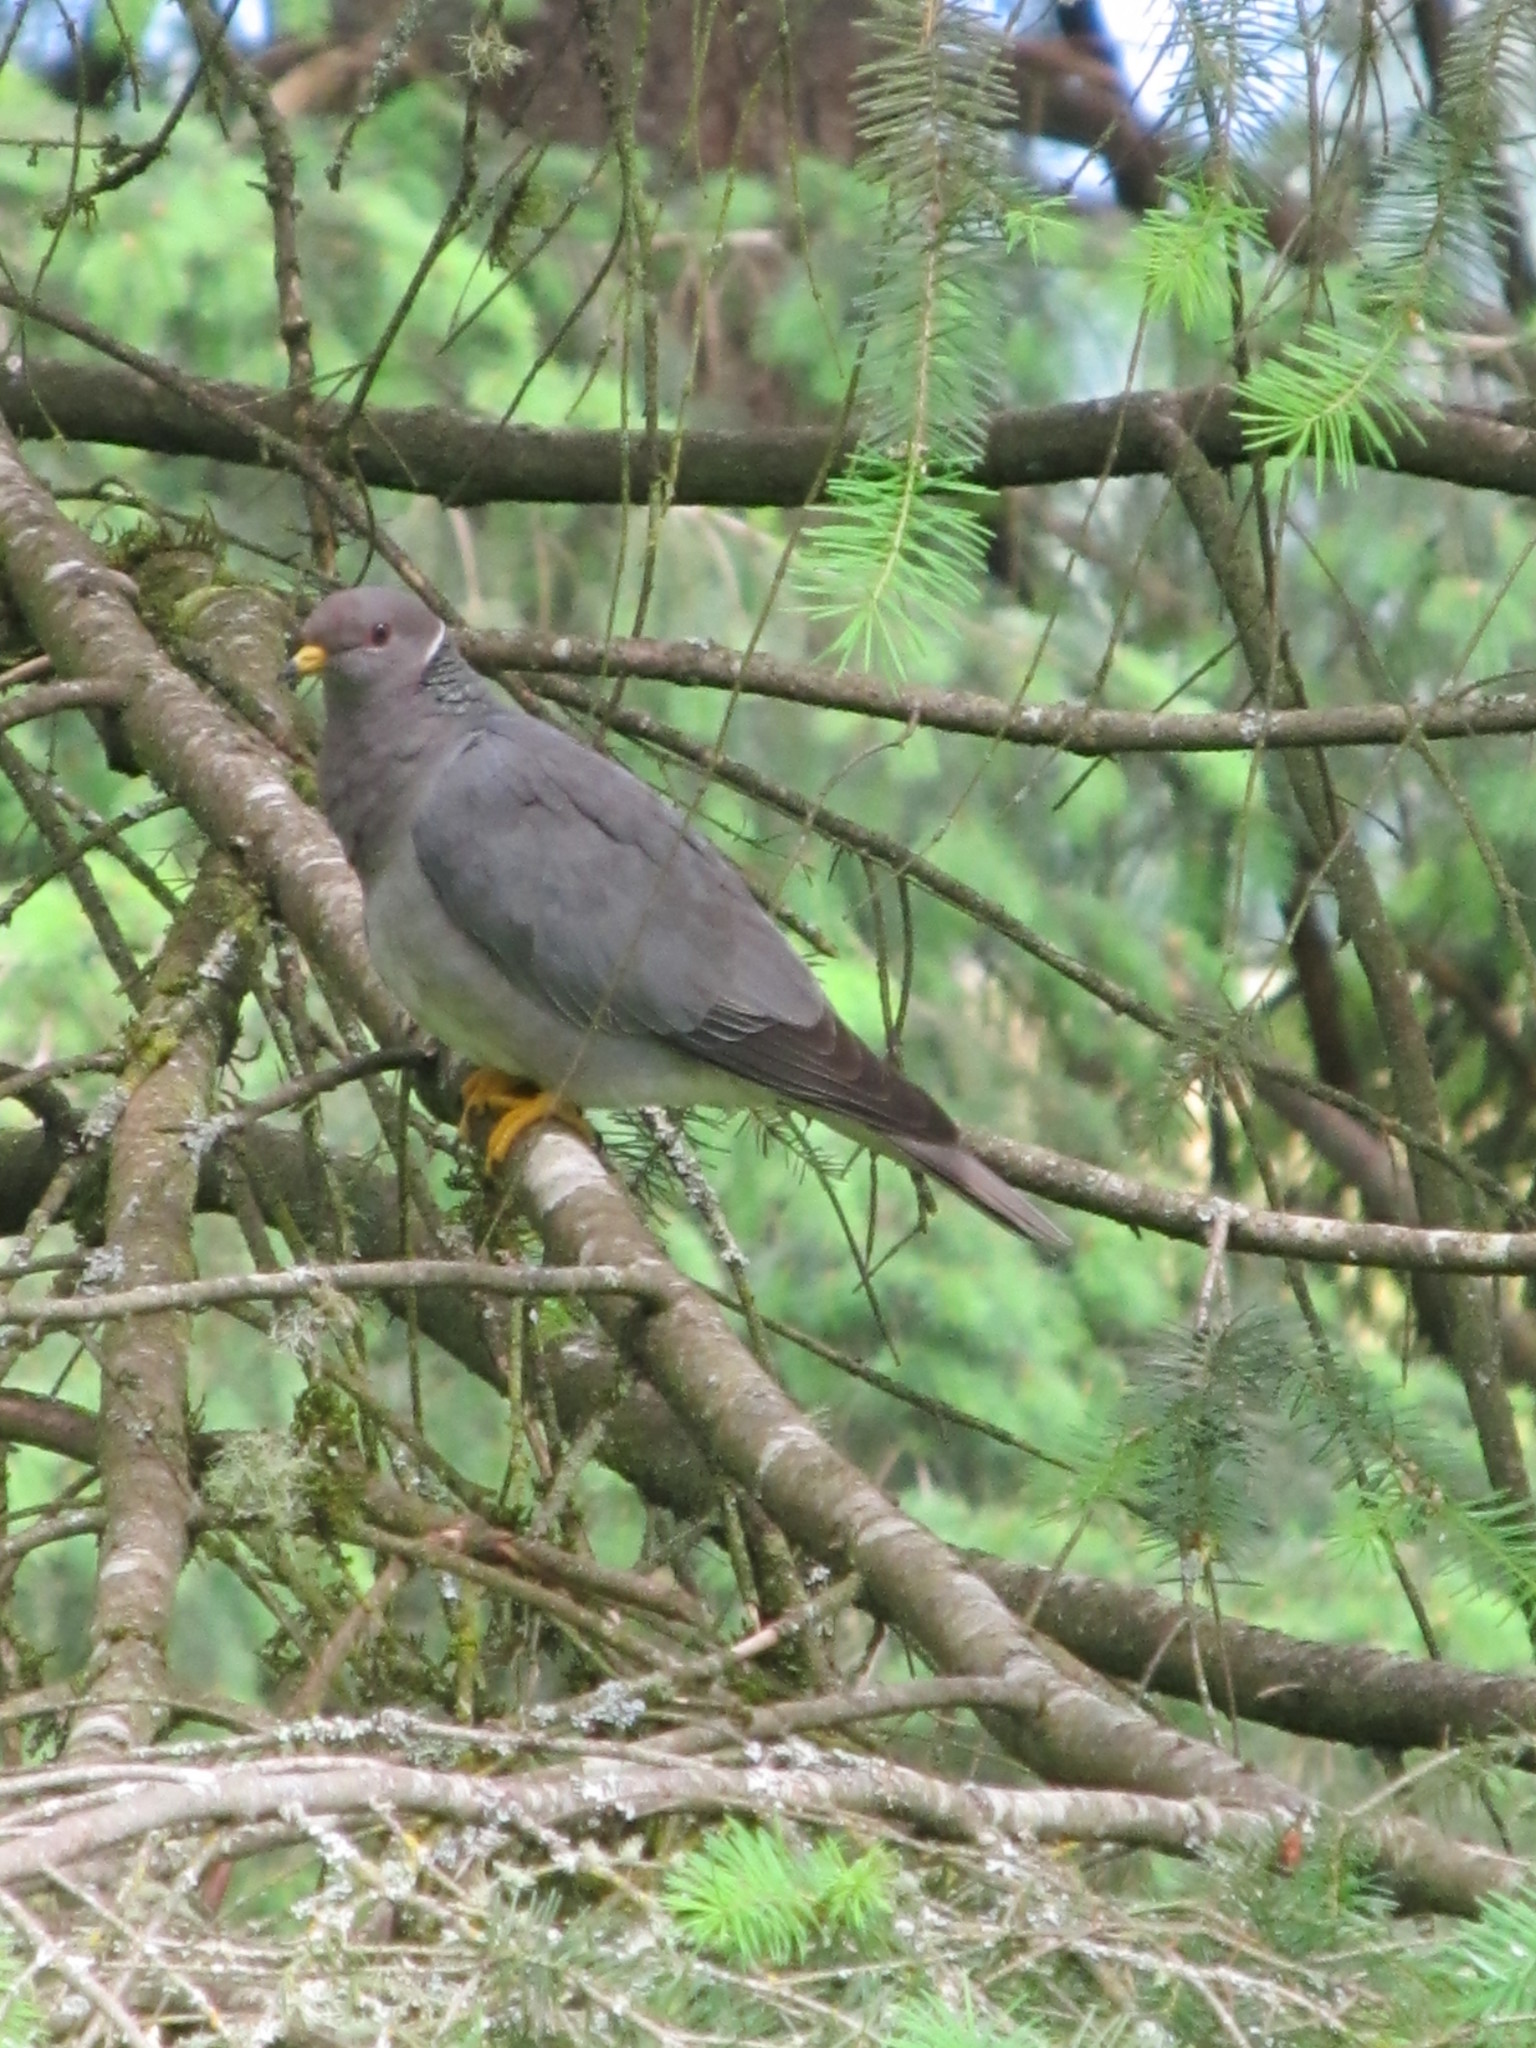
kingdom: Animalia
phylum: Chordata
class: Aves
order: Columbiformes
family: Columbidae
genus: Patagioenas
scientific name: Patagioenas fasciata
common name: Band-tailed pigeon
